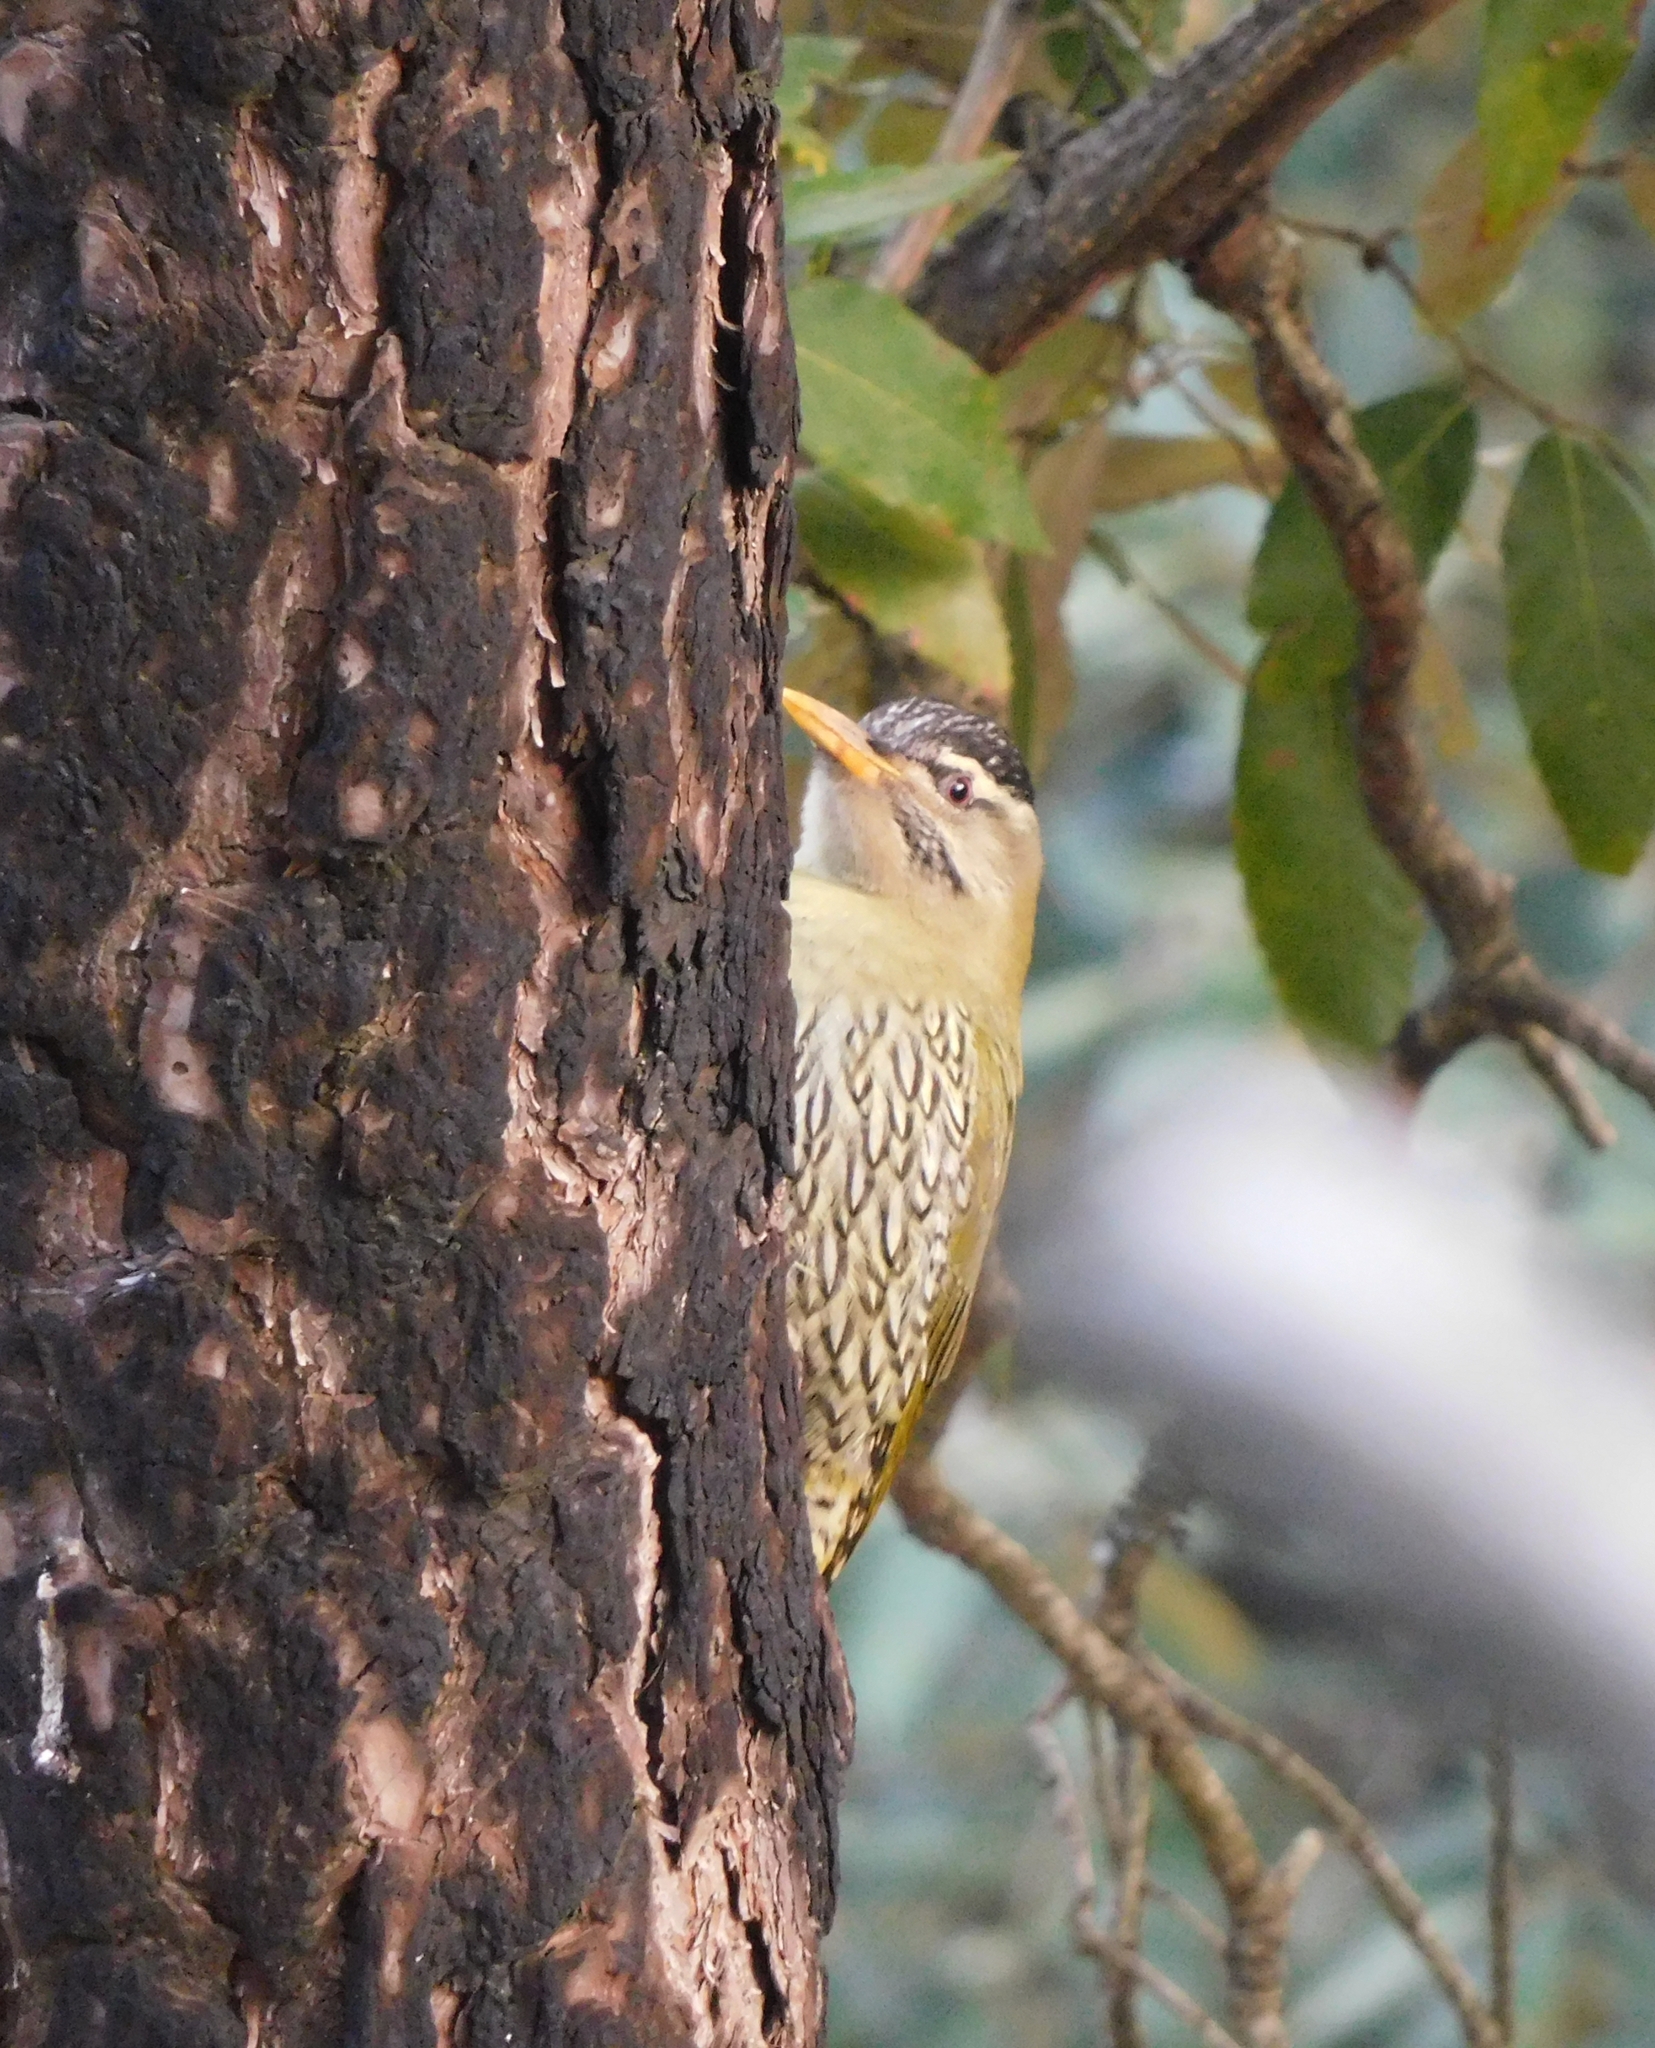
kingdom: Animalia
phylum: Chordata
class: Aves
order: Piciformes
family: Picidae
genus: Picus
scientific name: Picus squamatus
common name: Scaly-bellied woodpecker
